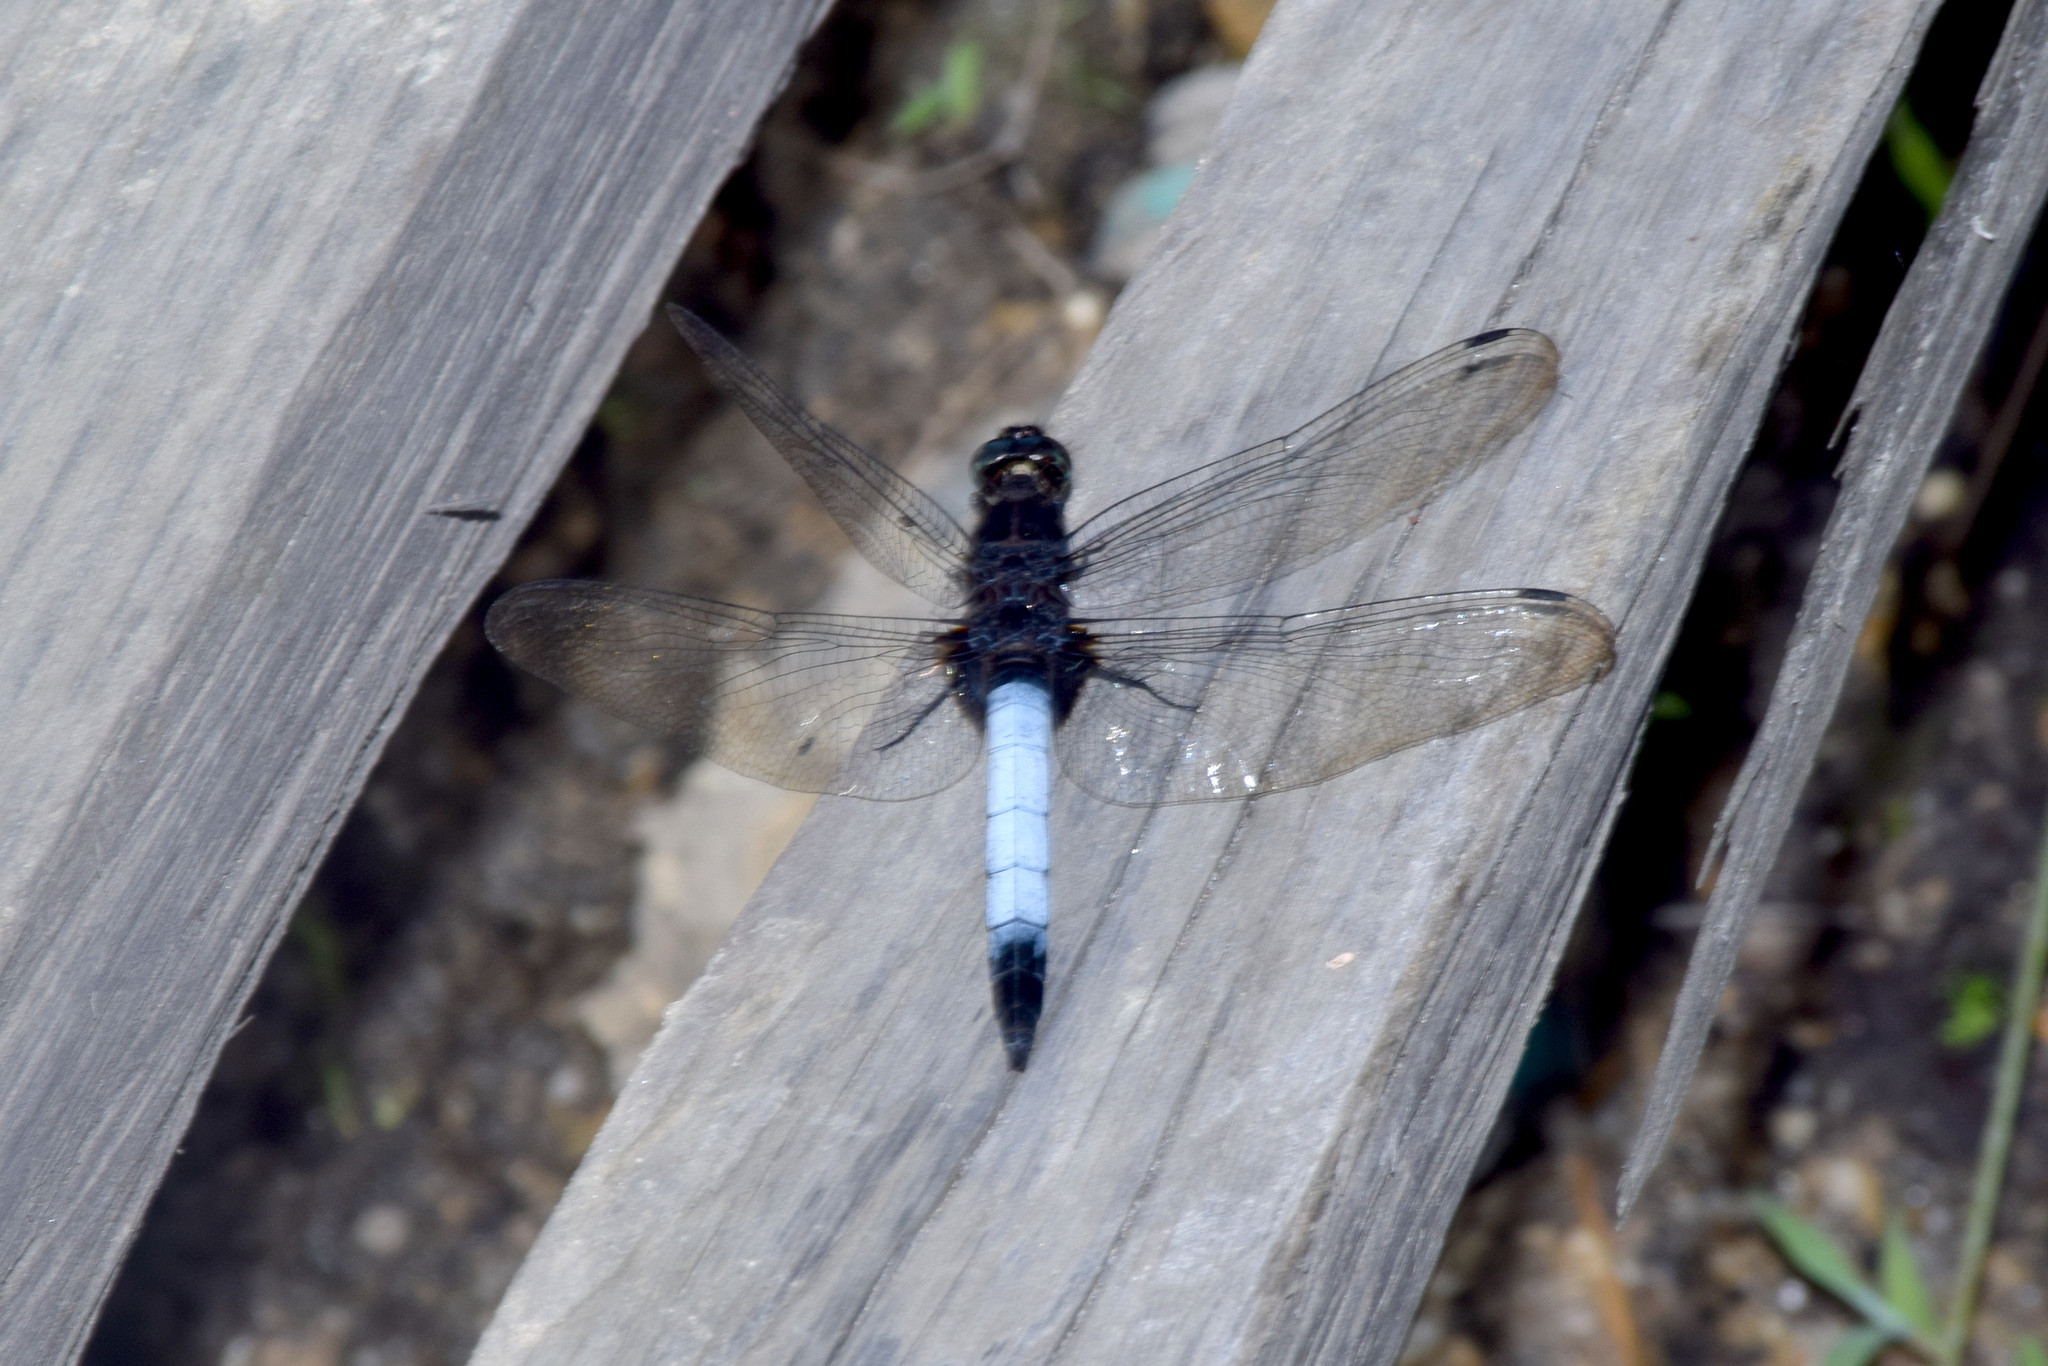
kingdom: Animalia
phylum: Arthropoda
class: Insecta
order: Odonata
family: Libellulidae
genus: Orthetrum
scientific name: Orthetrum triangulare
